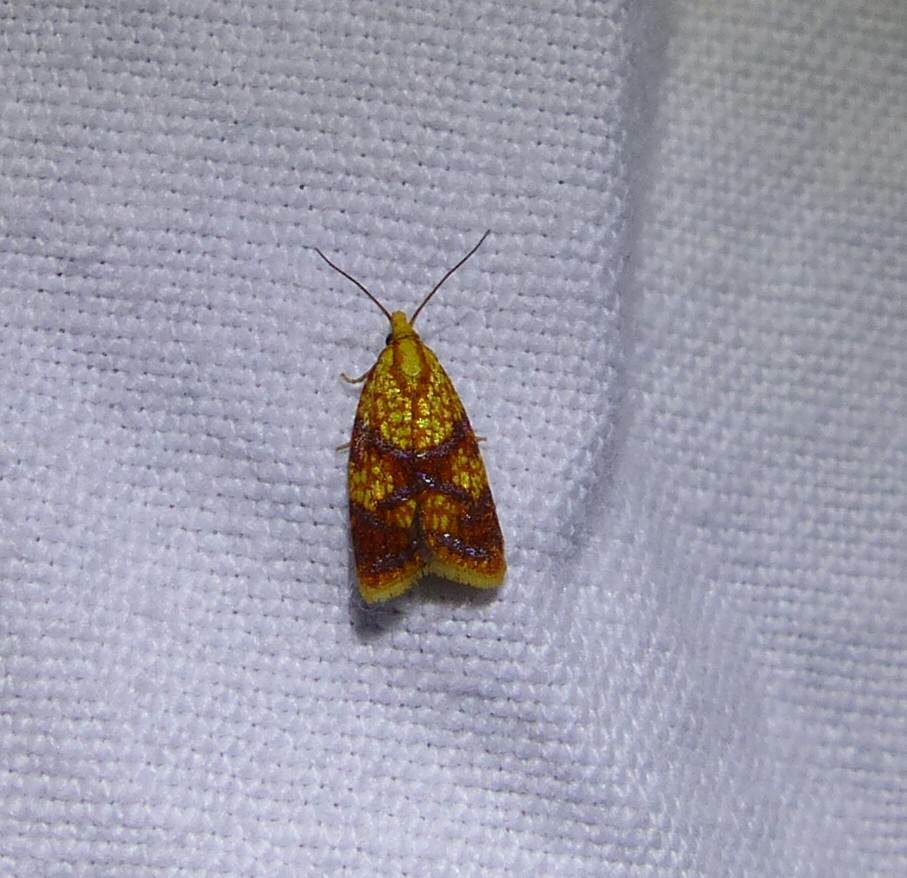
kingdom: Animalia
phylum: Arthropoda
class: Insecta
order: Lepidoptera
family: Tortricidae
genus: Sparganothis
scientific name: Sparganothis sulfureana
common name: Sparganothis fruitworm moth
